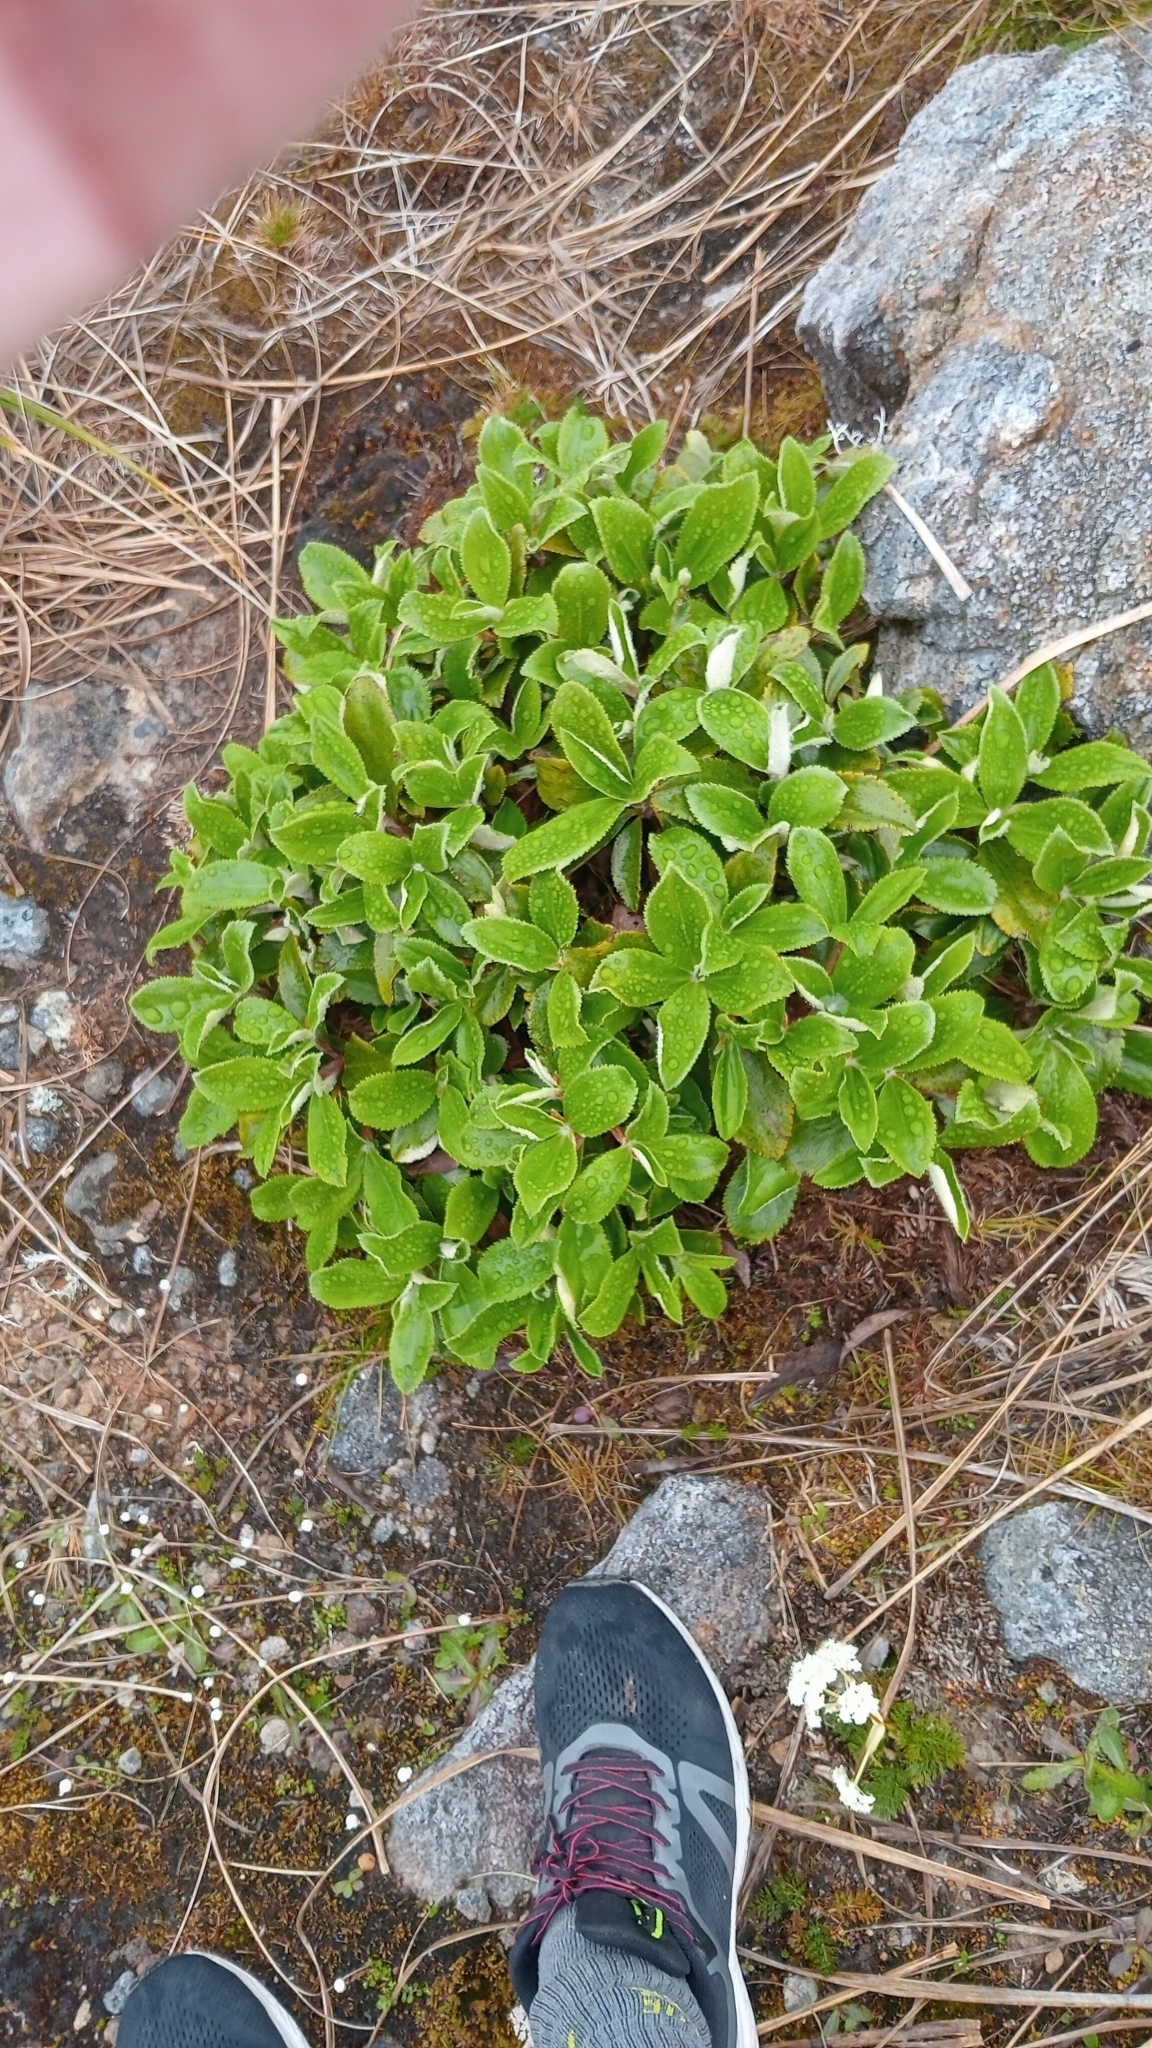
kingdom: Plantae
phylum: Tracheophyta
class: Magnoliopsida
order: Asterales
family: Asteraceae
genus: Macrolearia
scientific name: Macrolearia colensoi
